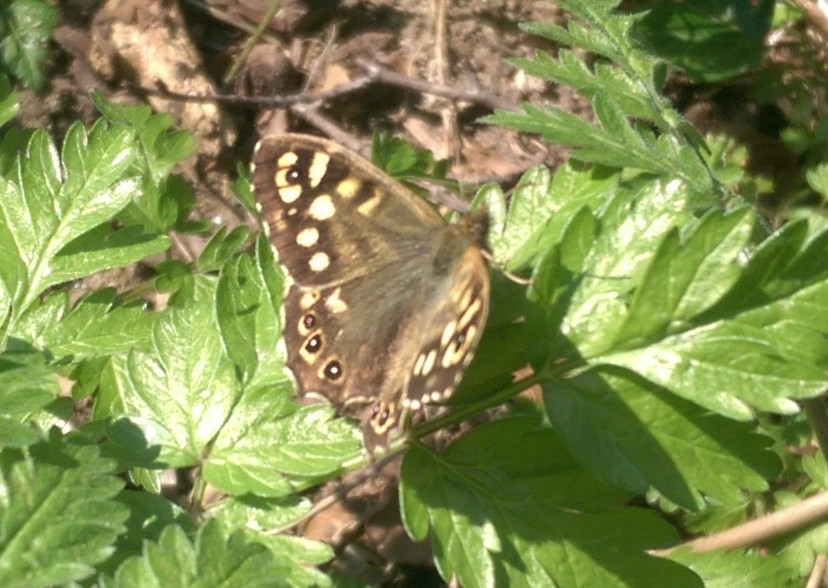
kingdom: Animalia
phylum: Arthropoda
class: Insecta
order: Lepidoptera
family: Nymphalidae
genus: Pararge
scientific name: Pararge aegeria
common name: Speckled wood
